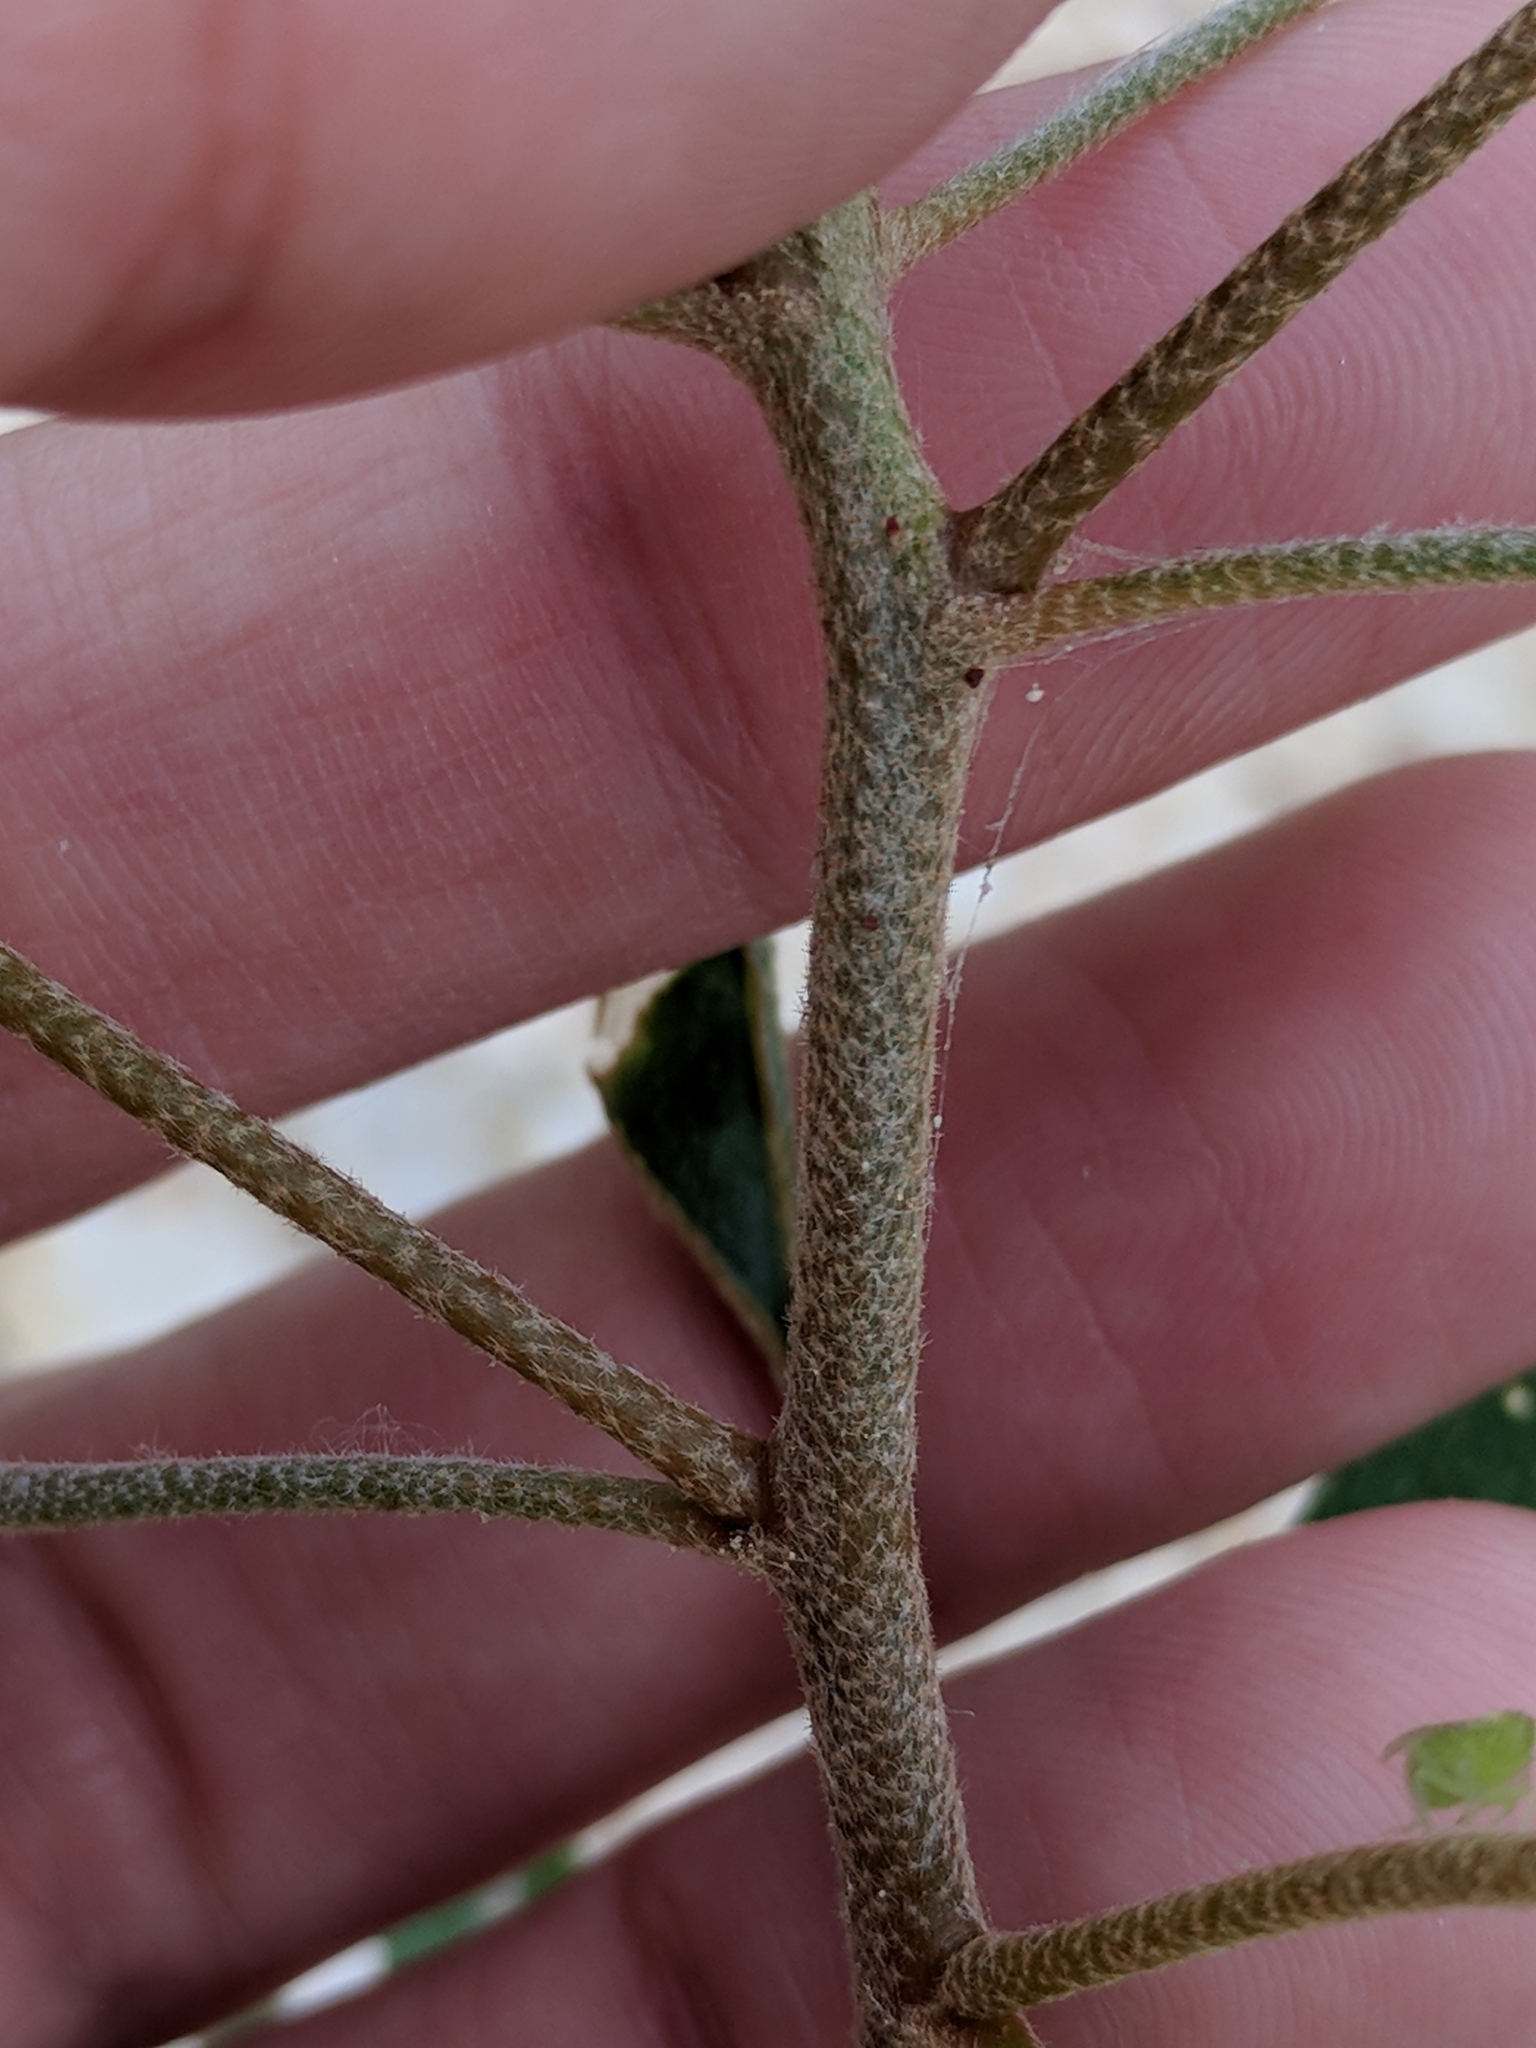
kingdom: Plantae
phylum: Tracheophyta
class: Magnoliopsida
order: Malpighiales
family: Euphorbiaceae
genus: Croton
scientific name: Croton texensis
